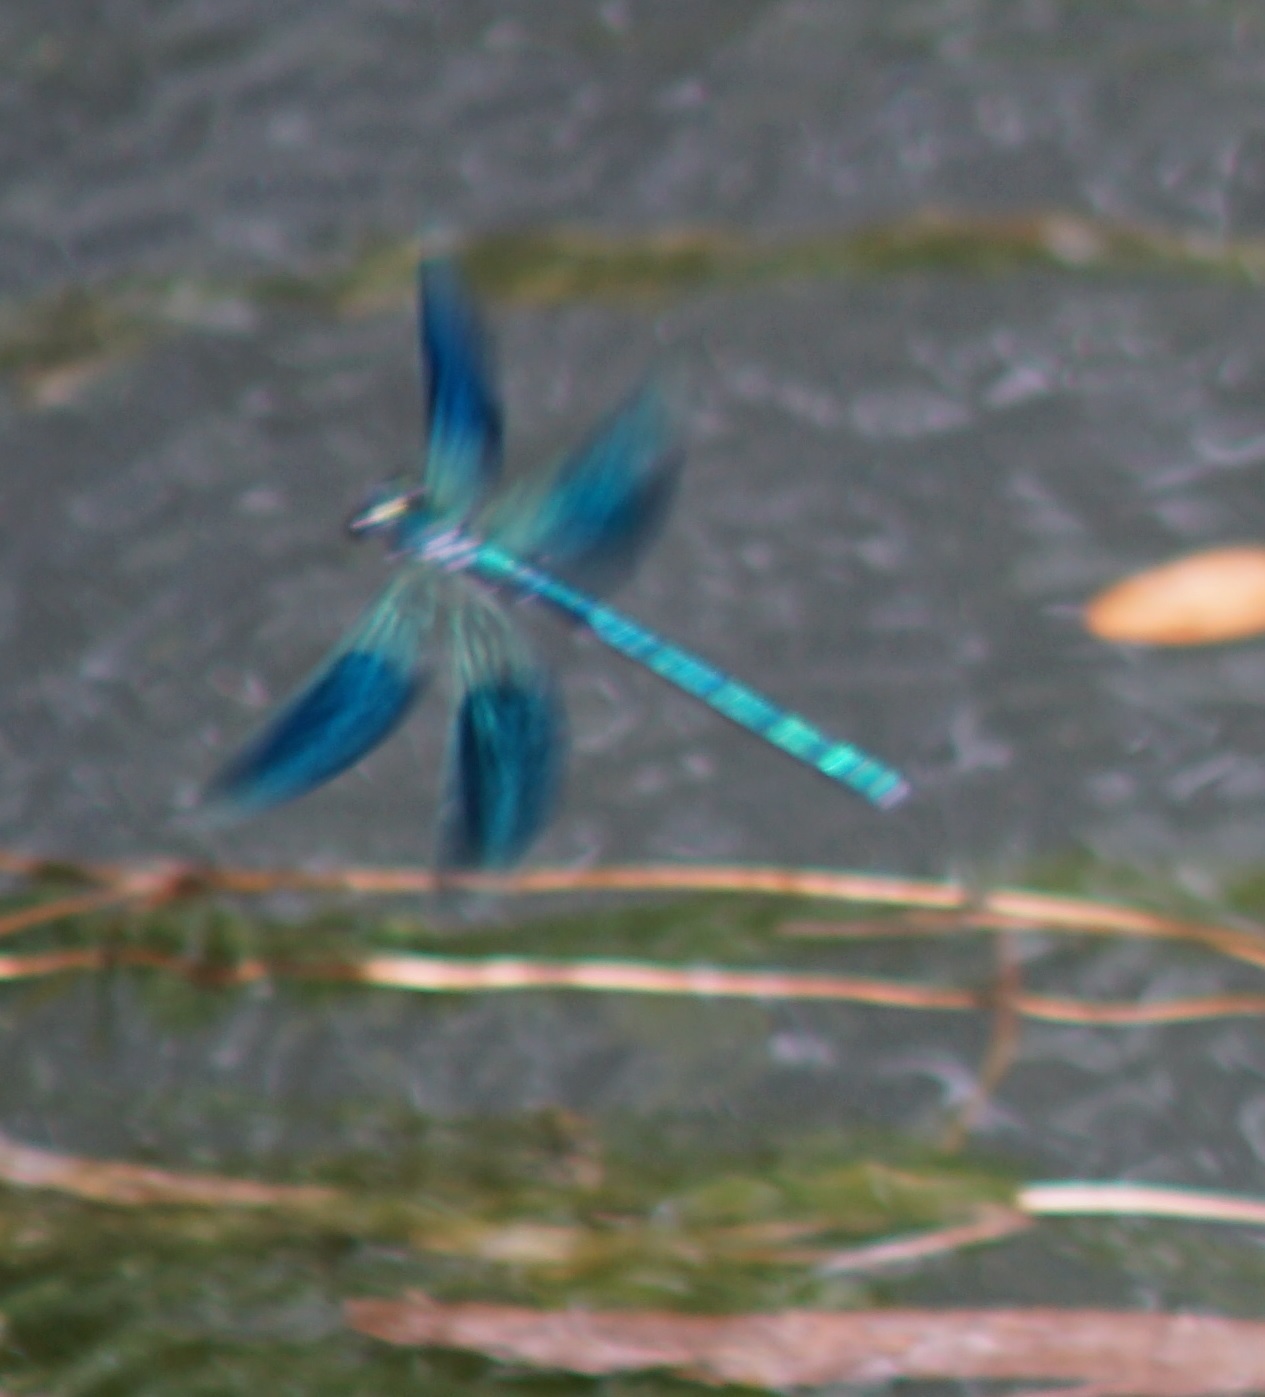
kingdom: Animalia
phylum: Arthropoda
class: Insecta
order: Odonata
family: Calopterygidae
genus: Calopteryx
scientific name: Calopteryx splendens
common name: Banded demoiselle
